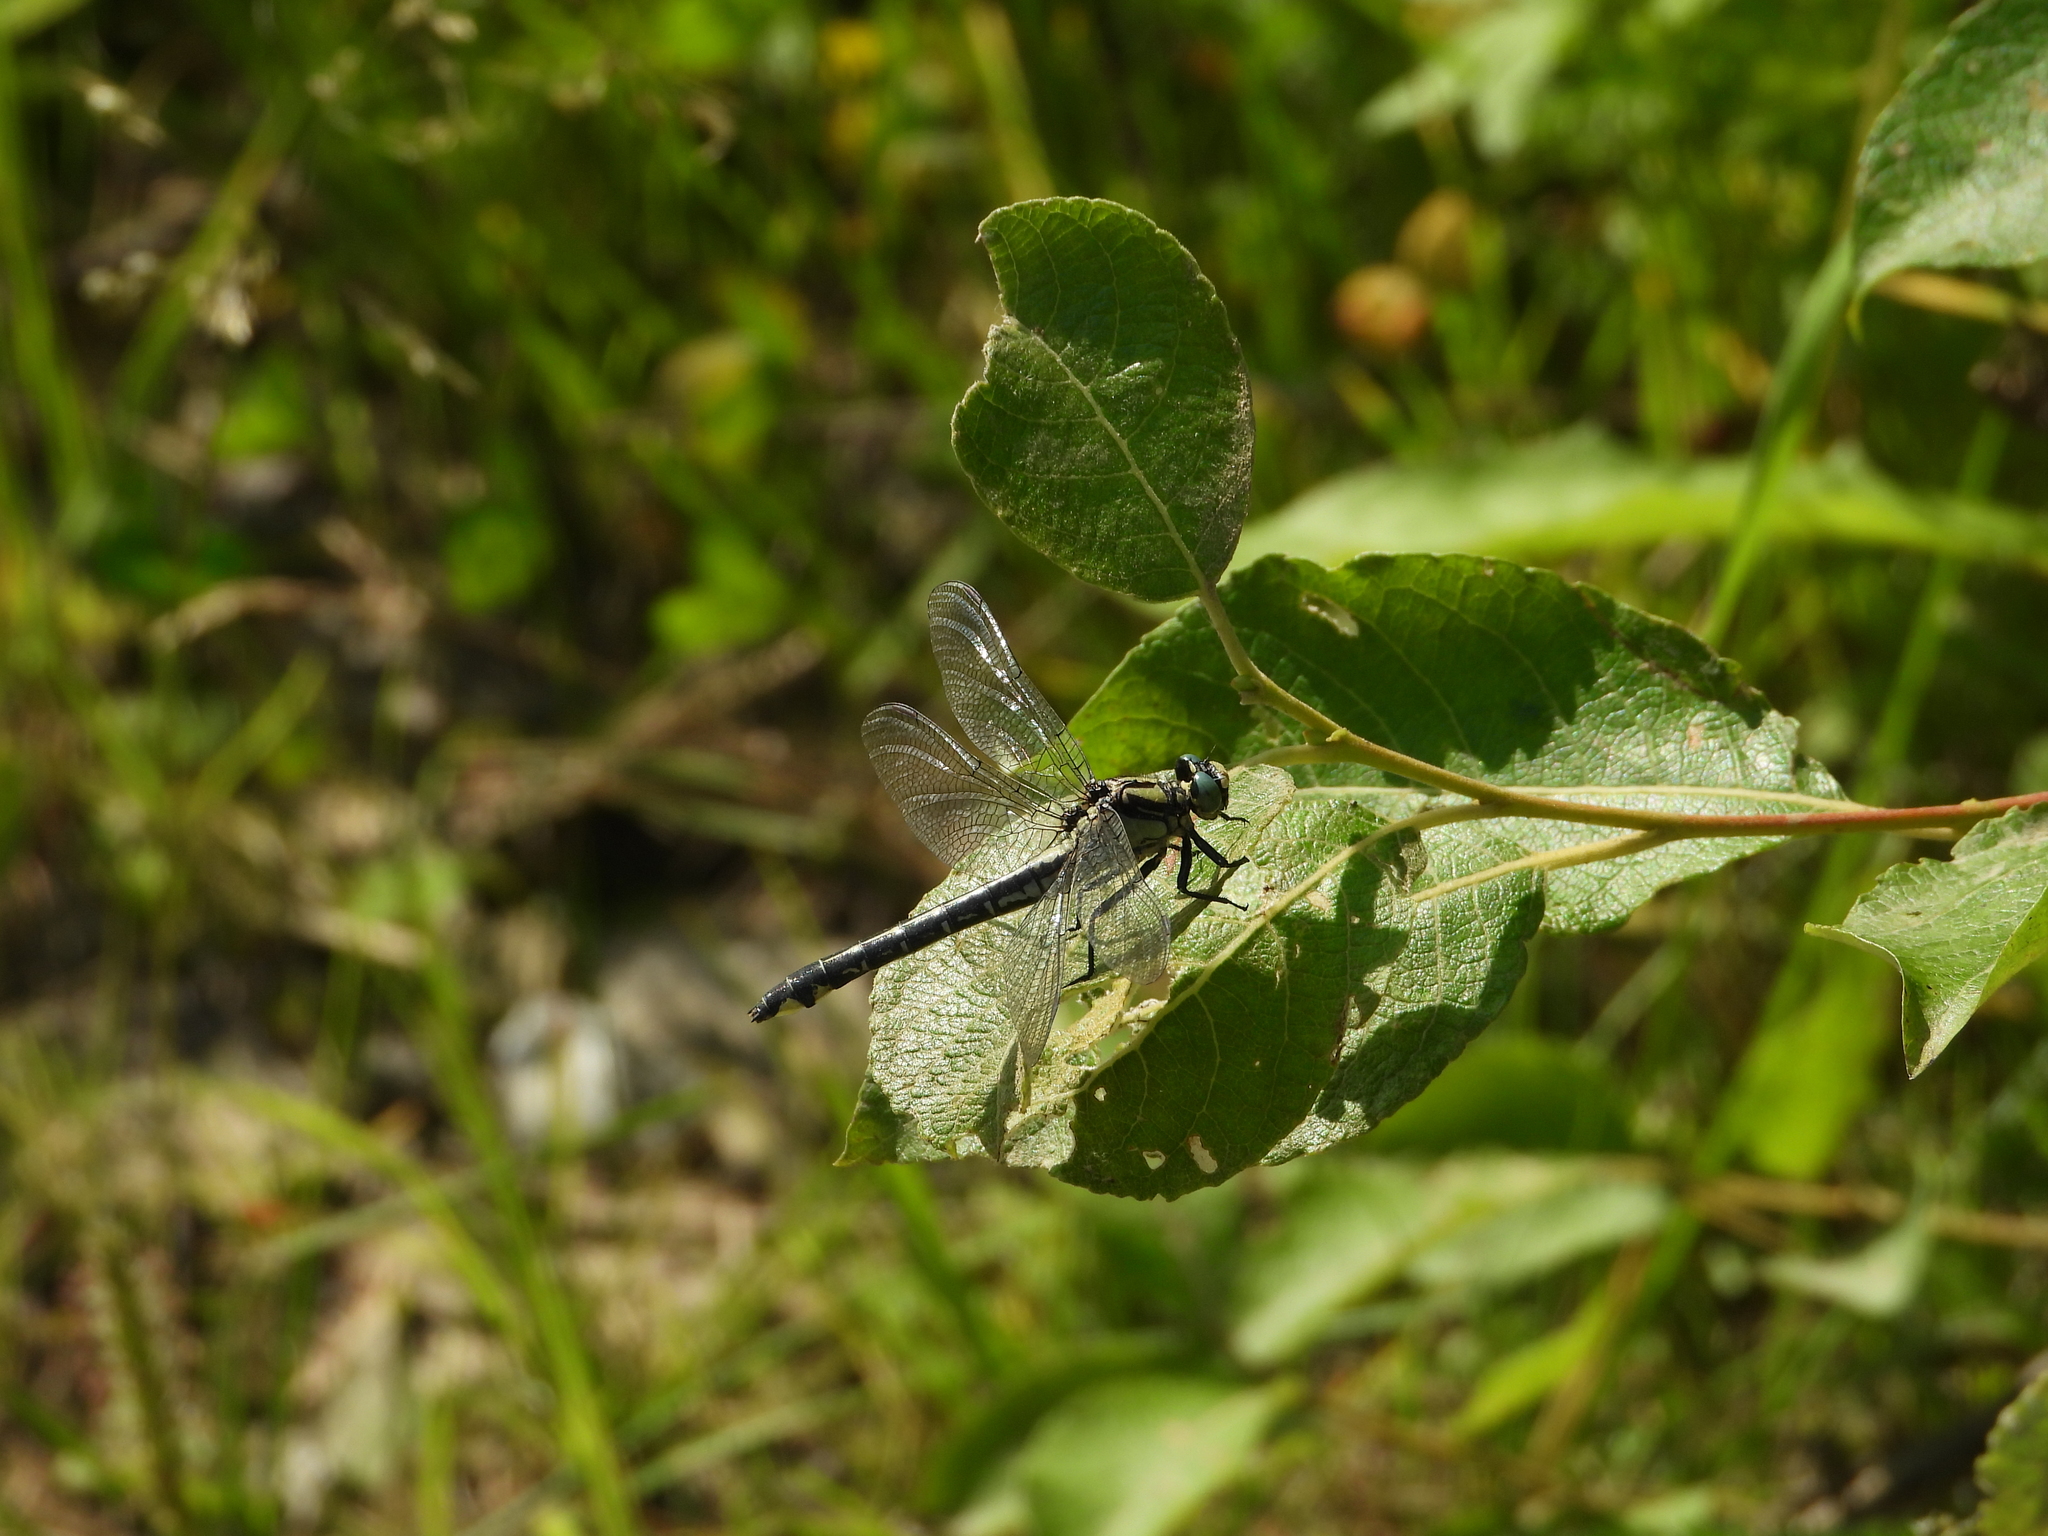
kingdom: Animalia
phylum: Arthropoda
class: Insecta
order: Odonata
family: Gomphidae
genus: Gomphus
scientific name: Gomphus vulgatissimus
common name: Club-tailed dragonfly
